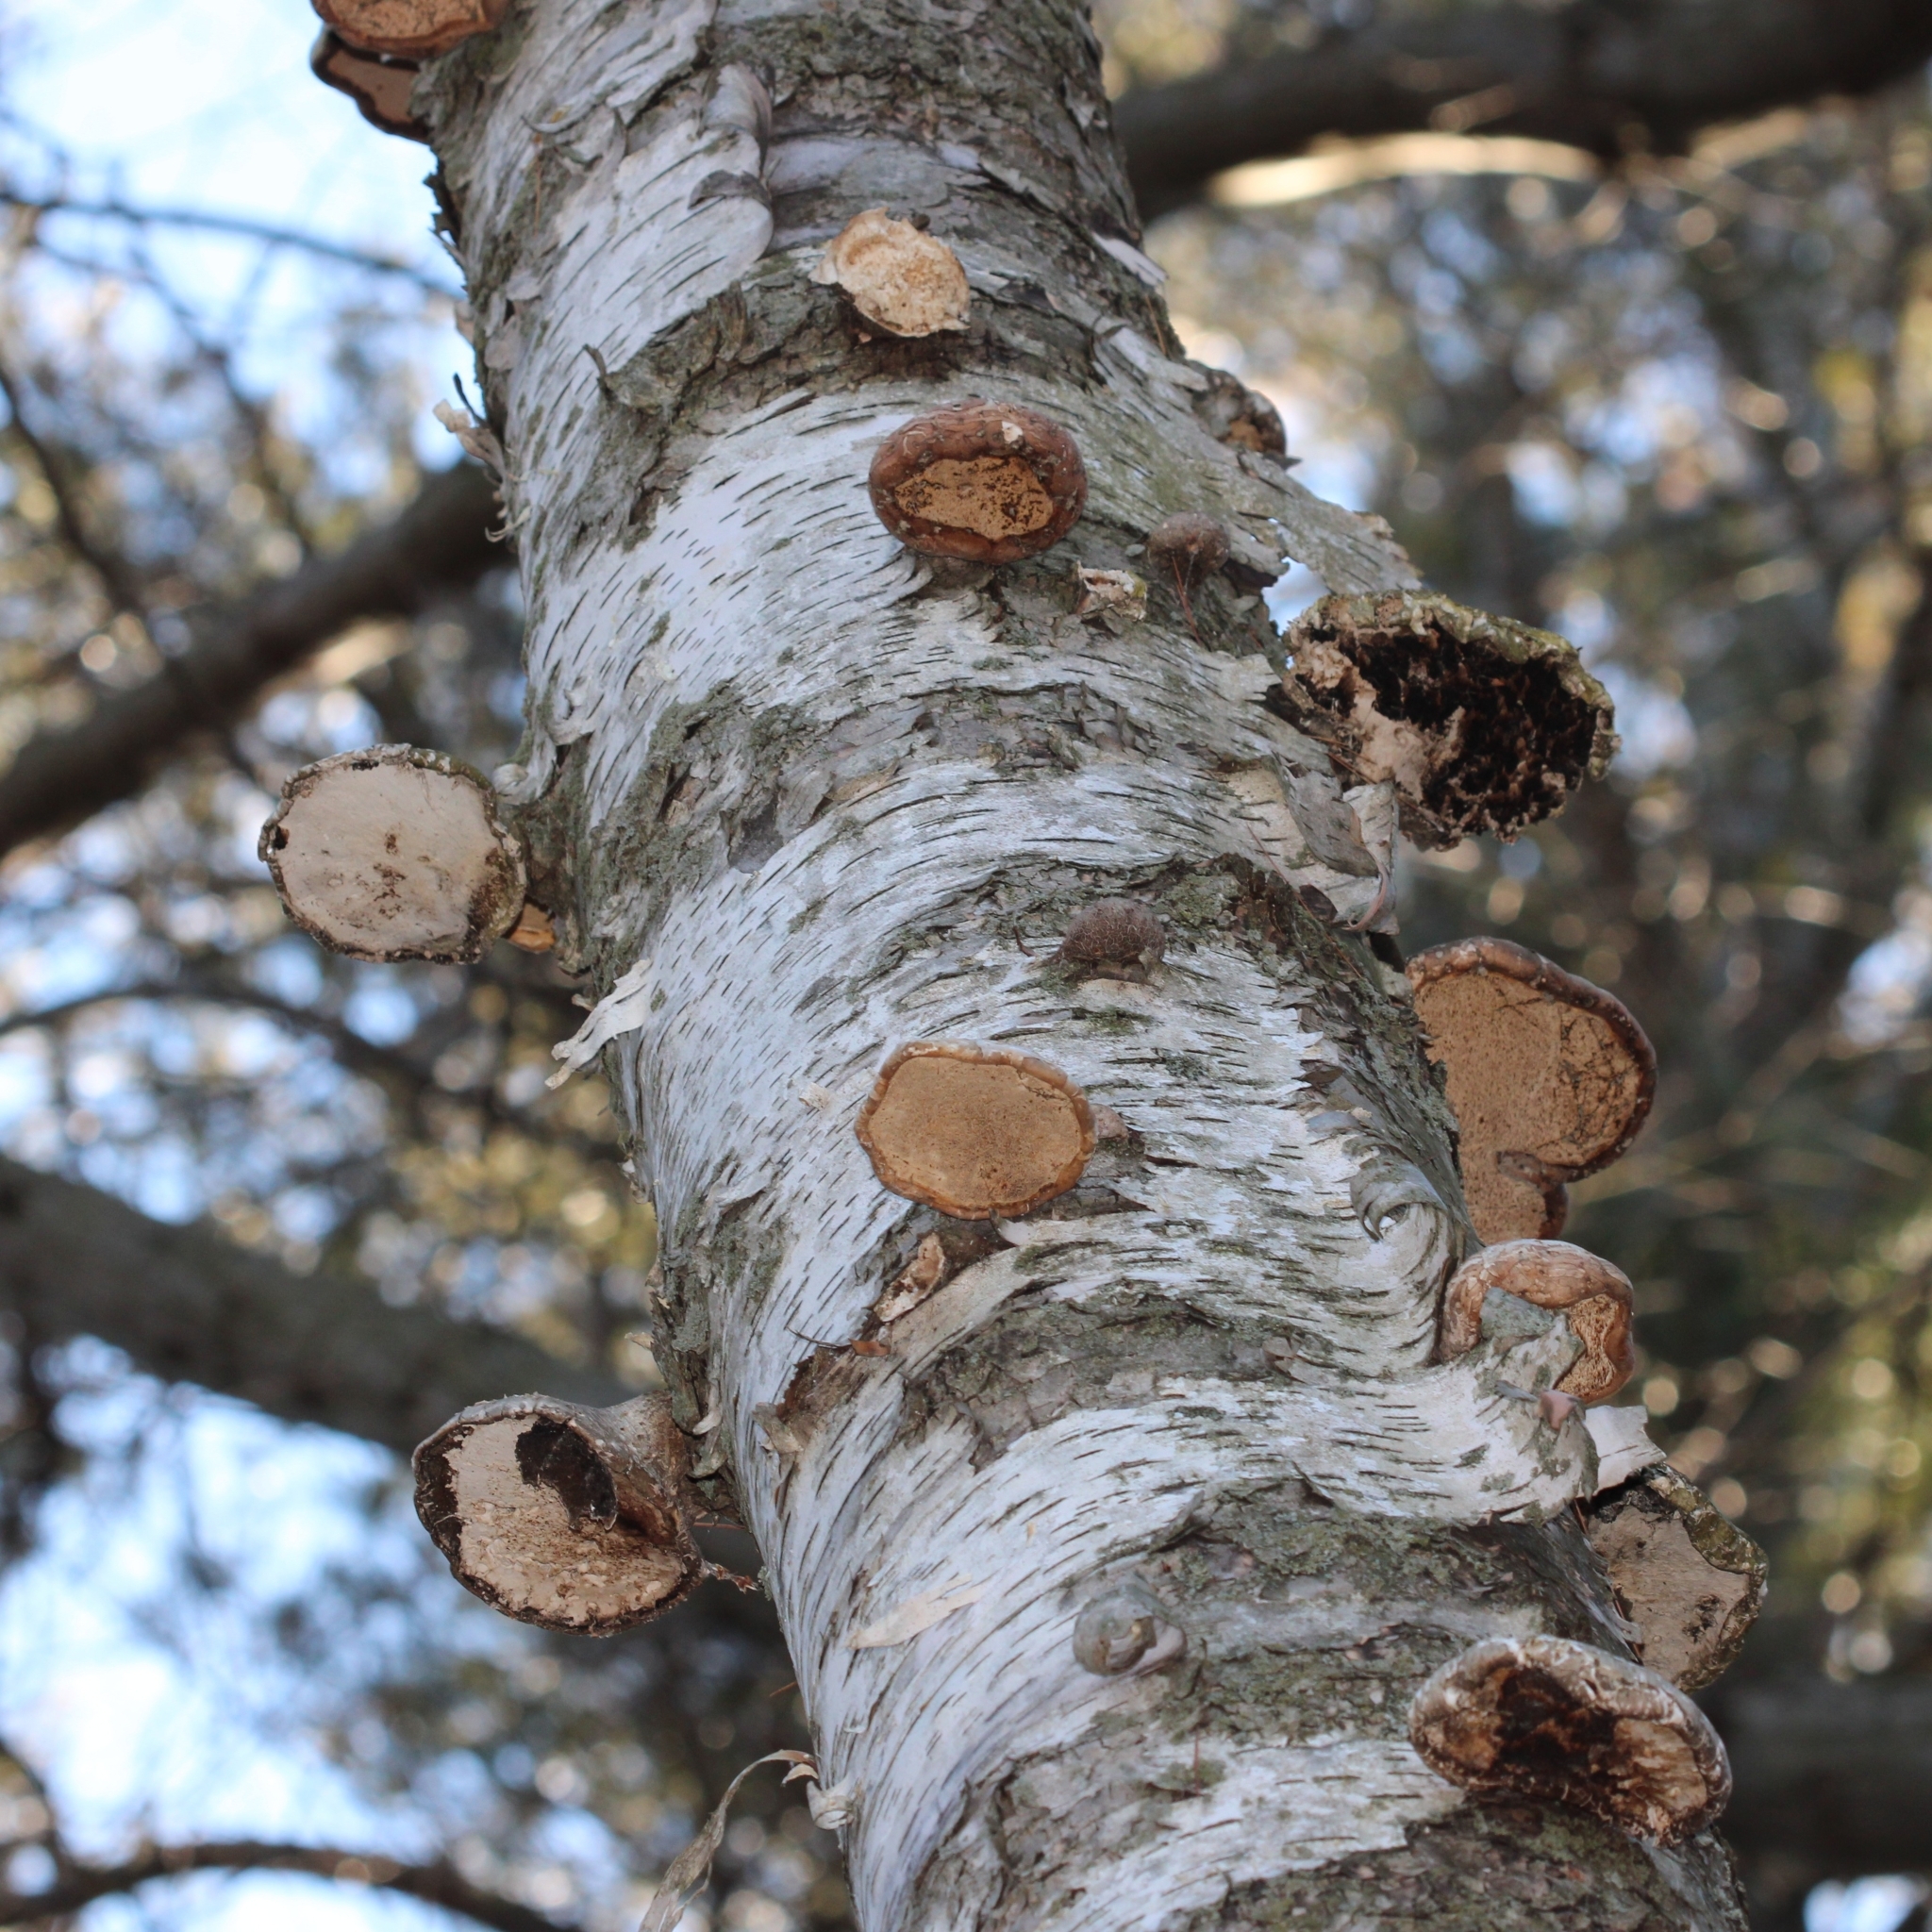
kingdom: Fungi
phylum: Basidiomycota
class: Agaricomycetes
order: Polyporales
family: Fomitopsidaceae
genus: Fomitopsis
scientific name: Fomitopsis betulina
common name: Birch polypore
